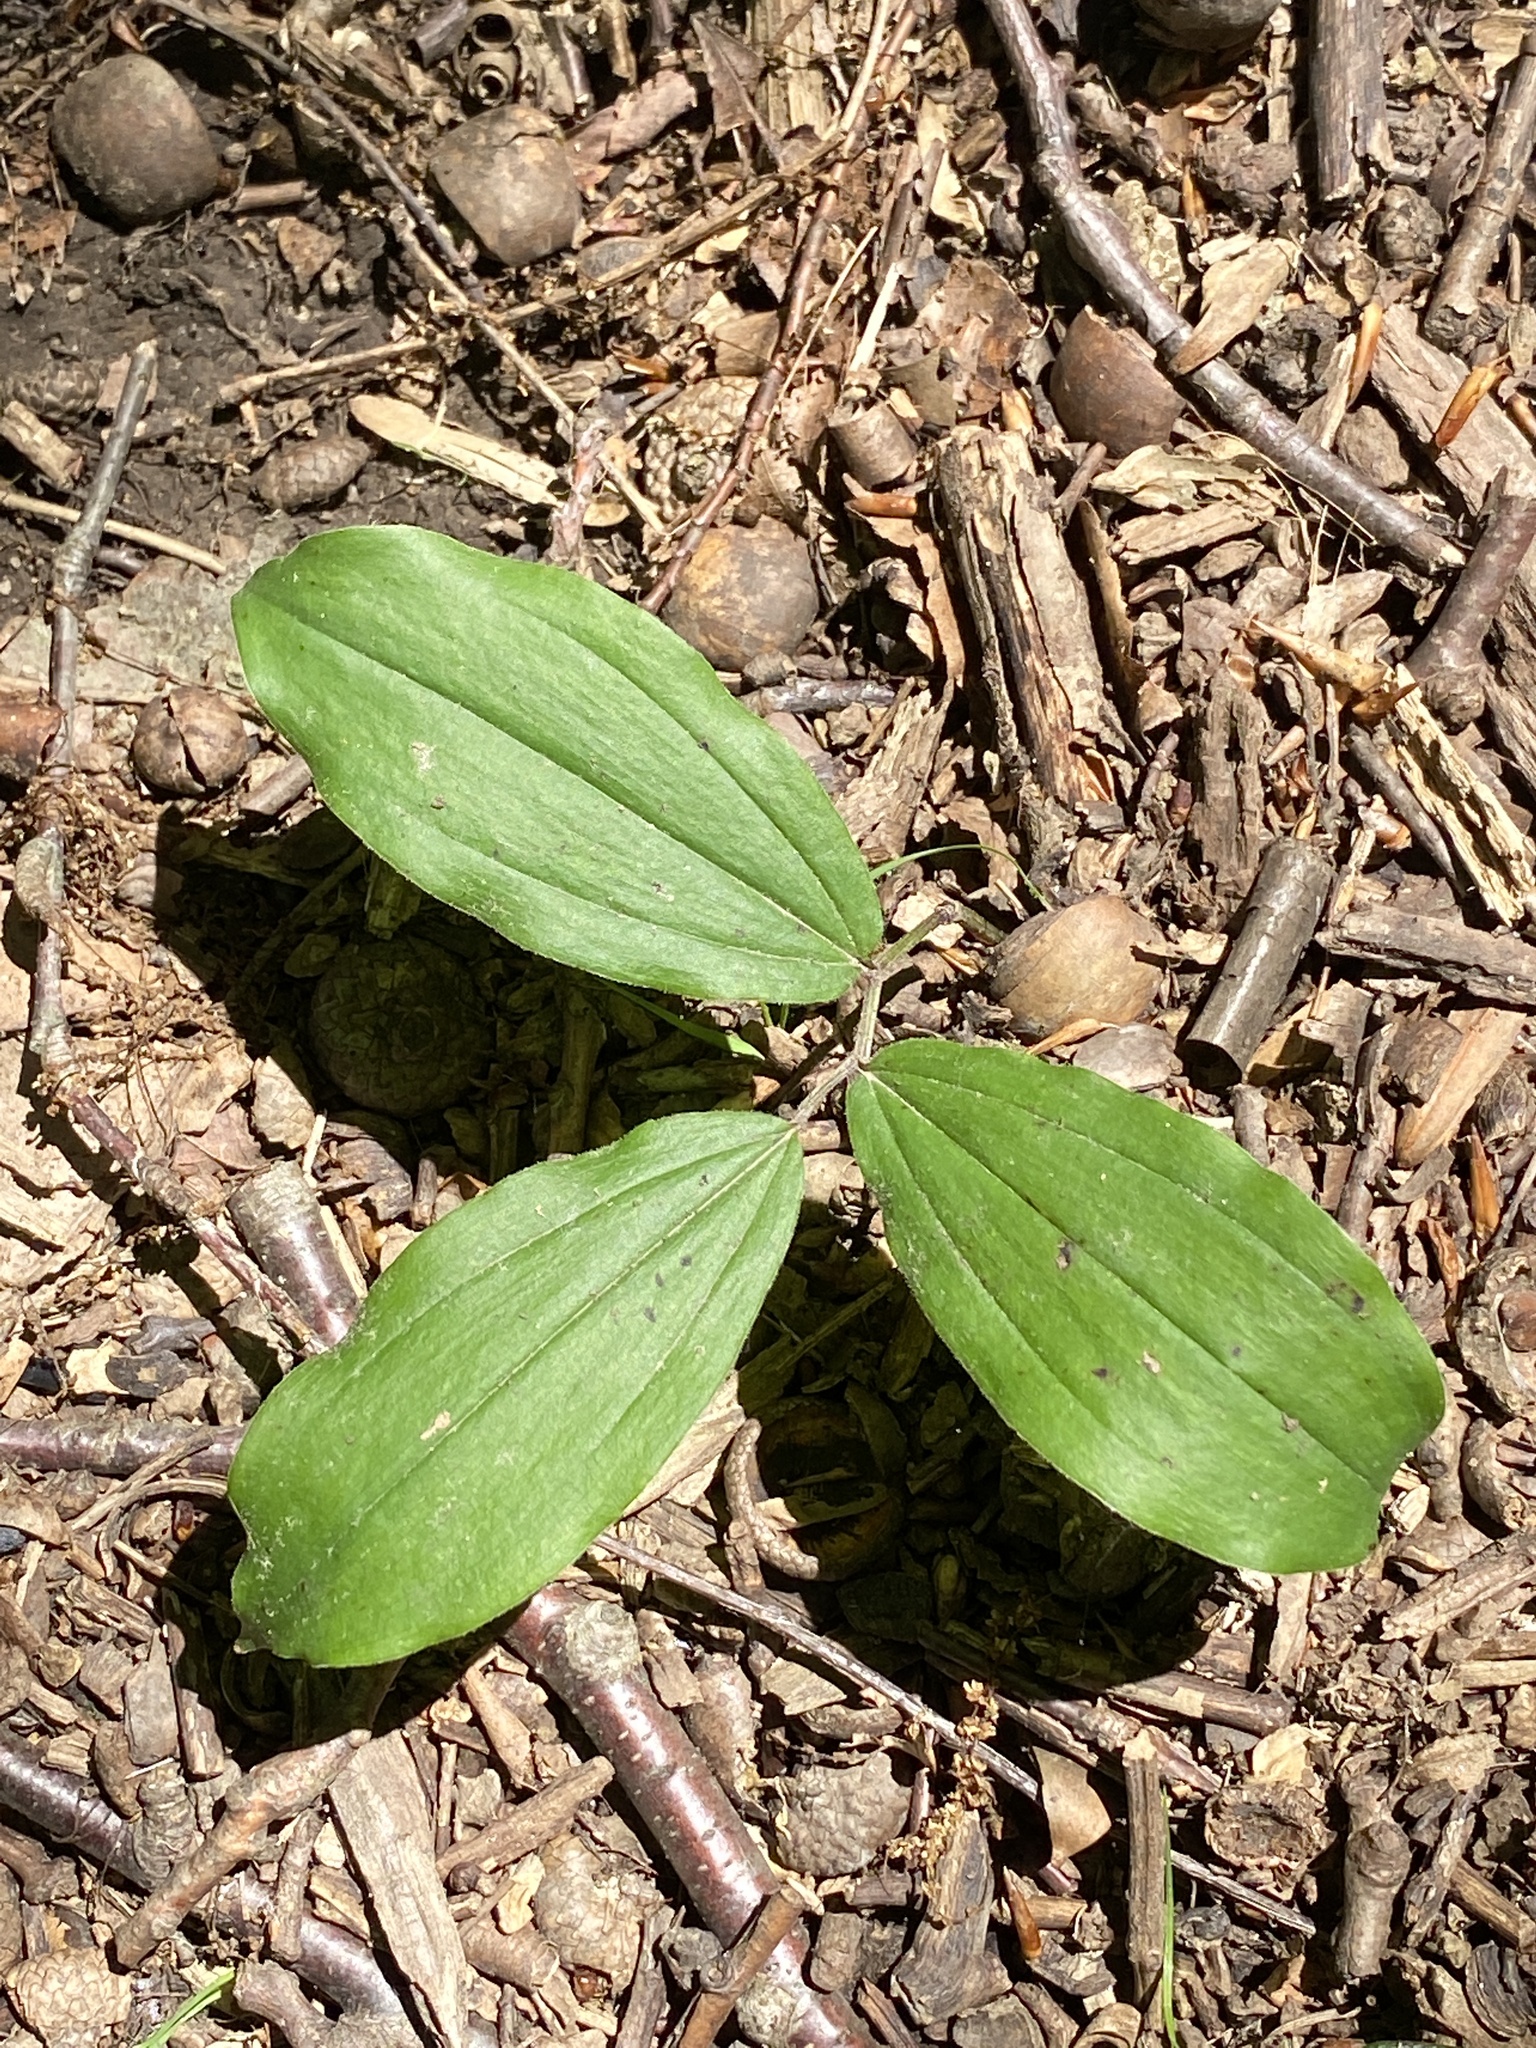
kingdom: Plantae
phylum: Tracheophyta
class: Liliopsida
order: Asparagales
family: Asparagaceae
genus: Maianthemum
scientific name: Maianthemum racemosum
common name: False spikenard
